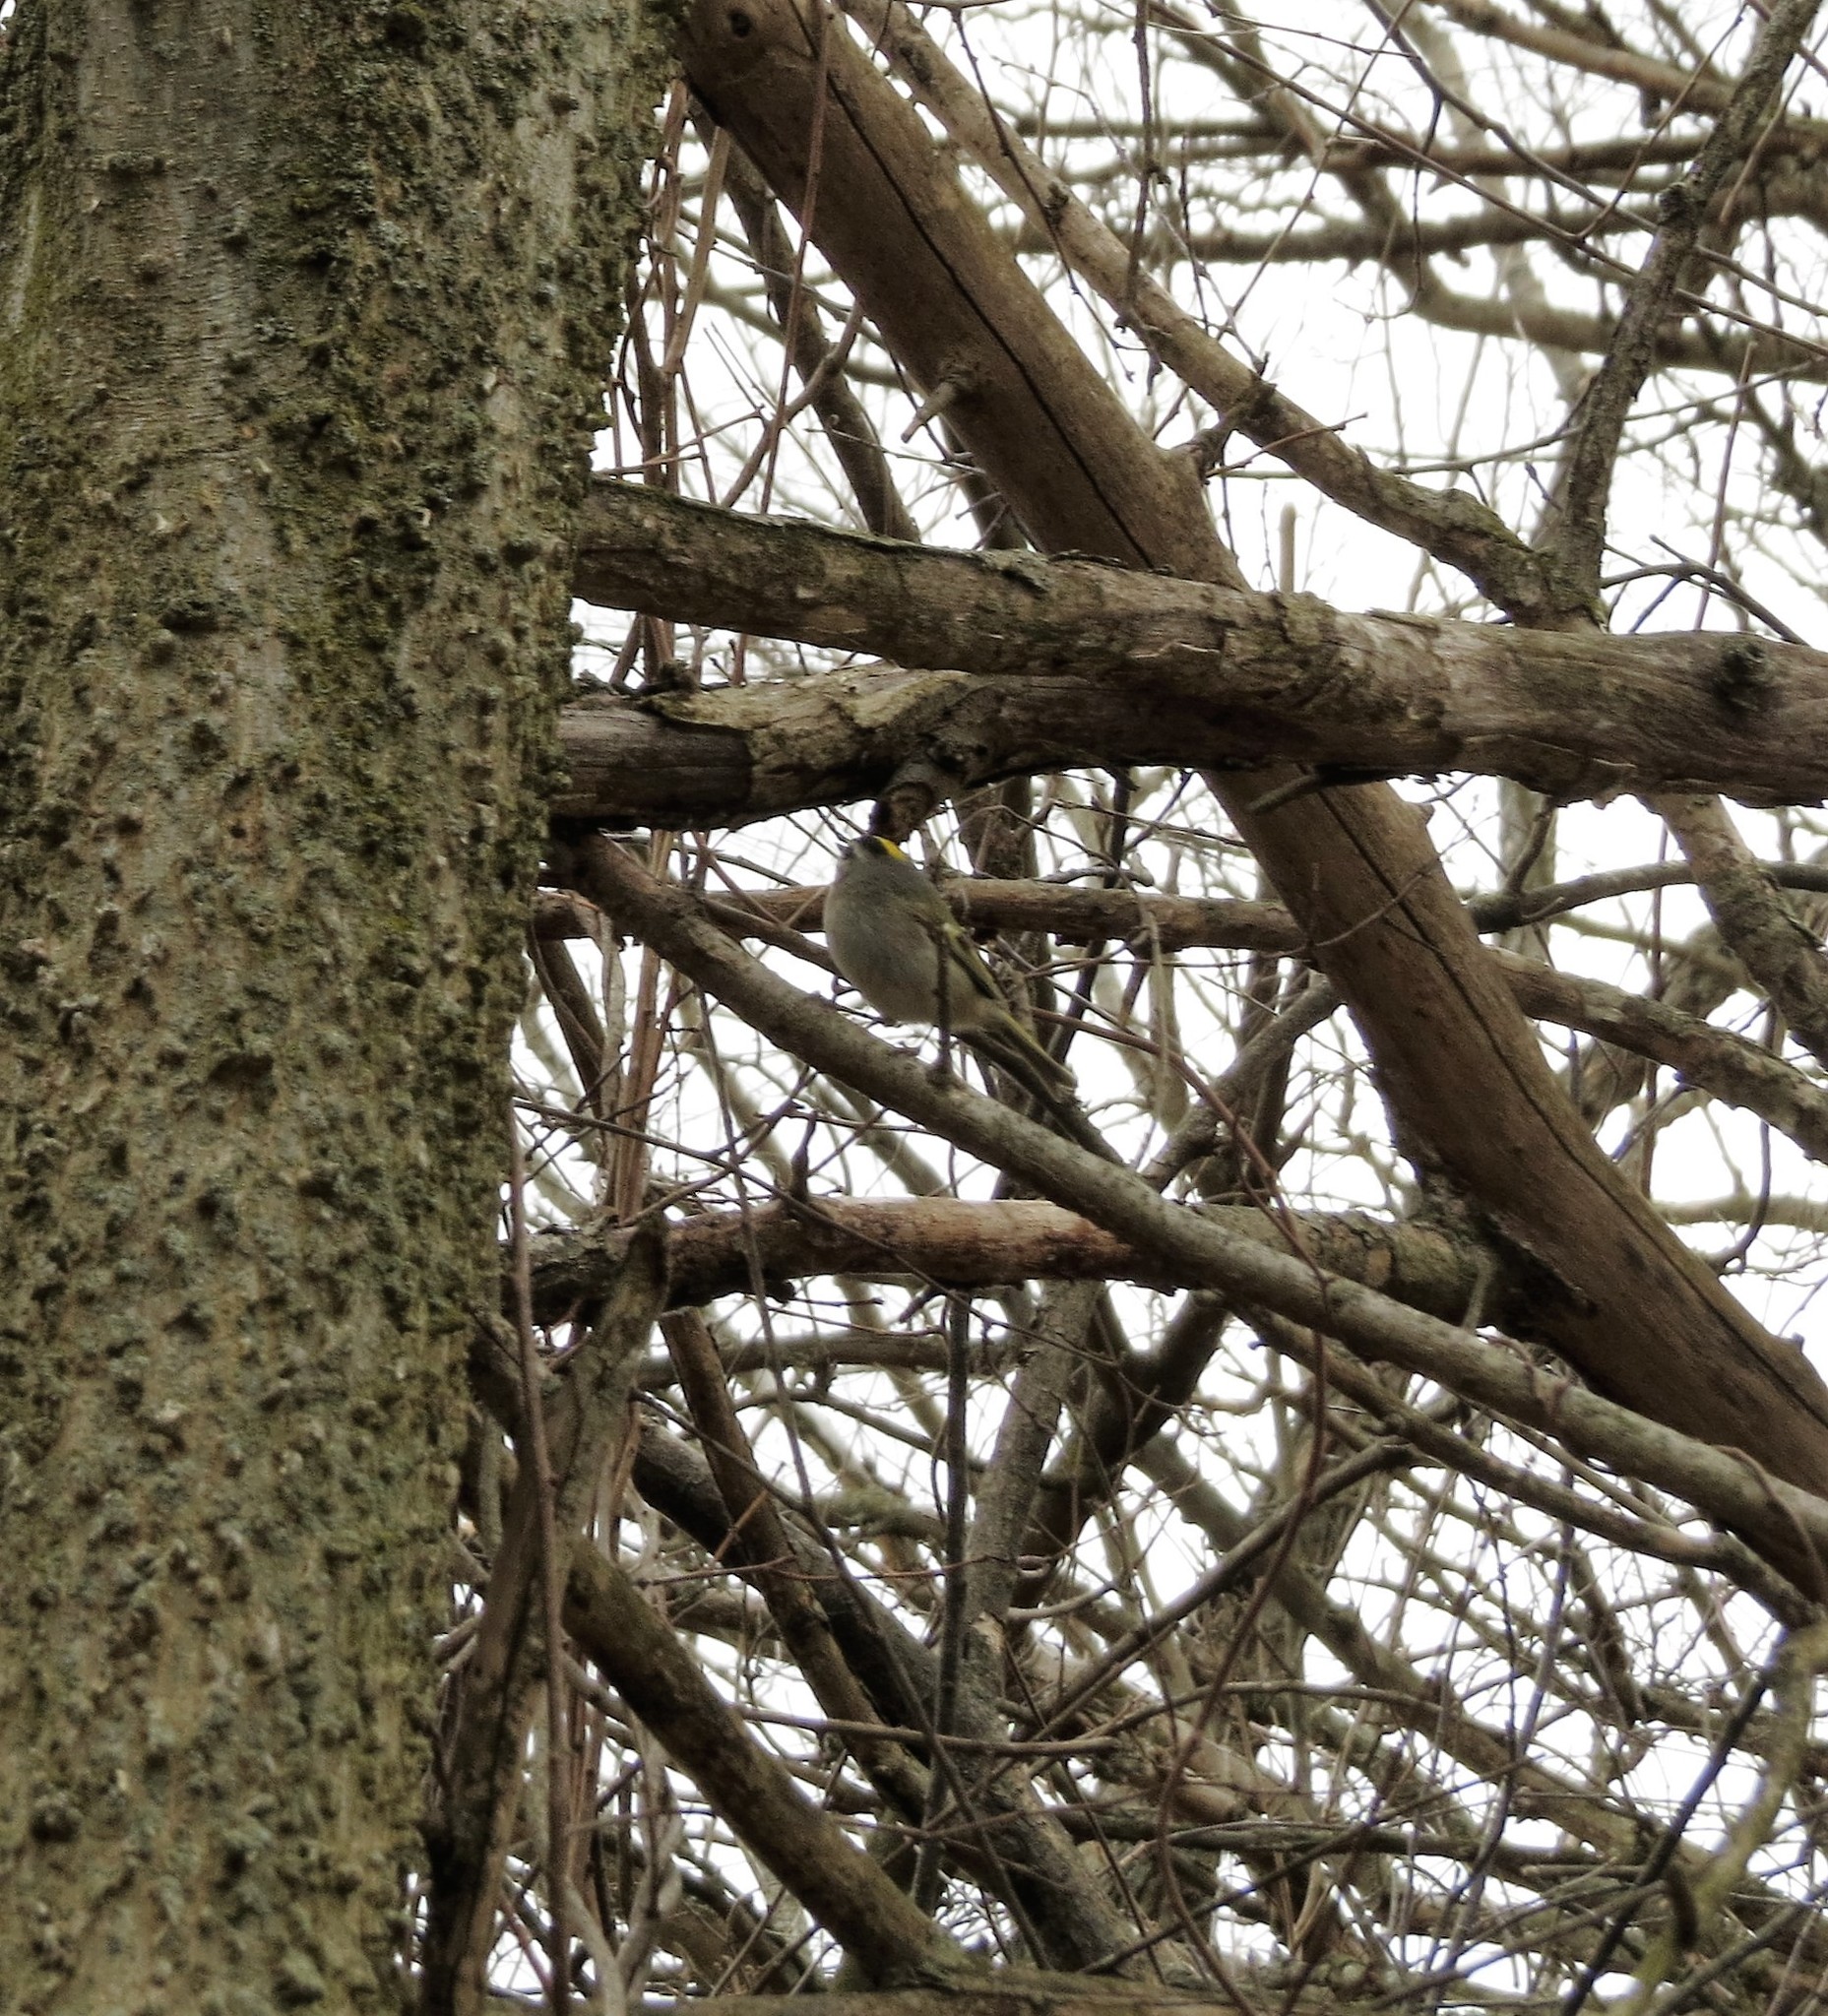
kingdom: Animalia
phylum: Chordata
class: Aves
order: Passeriformes
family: Regulidae
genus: Regulus
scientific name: Regulus satrapa
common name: Golden-crowned kinglet
